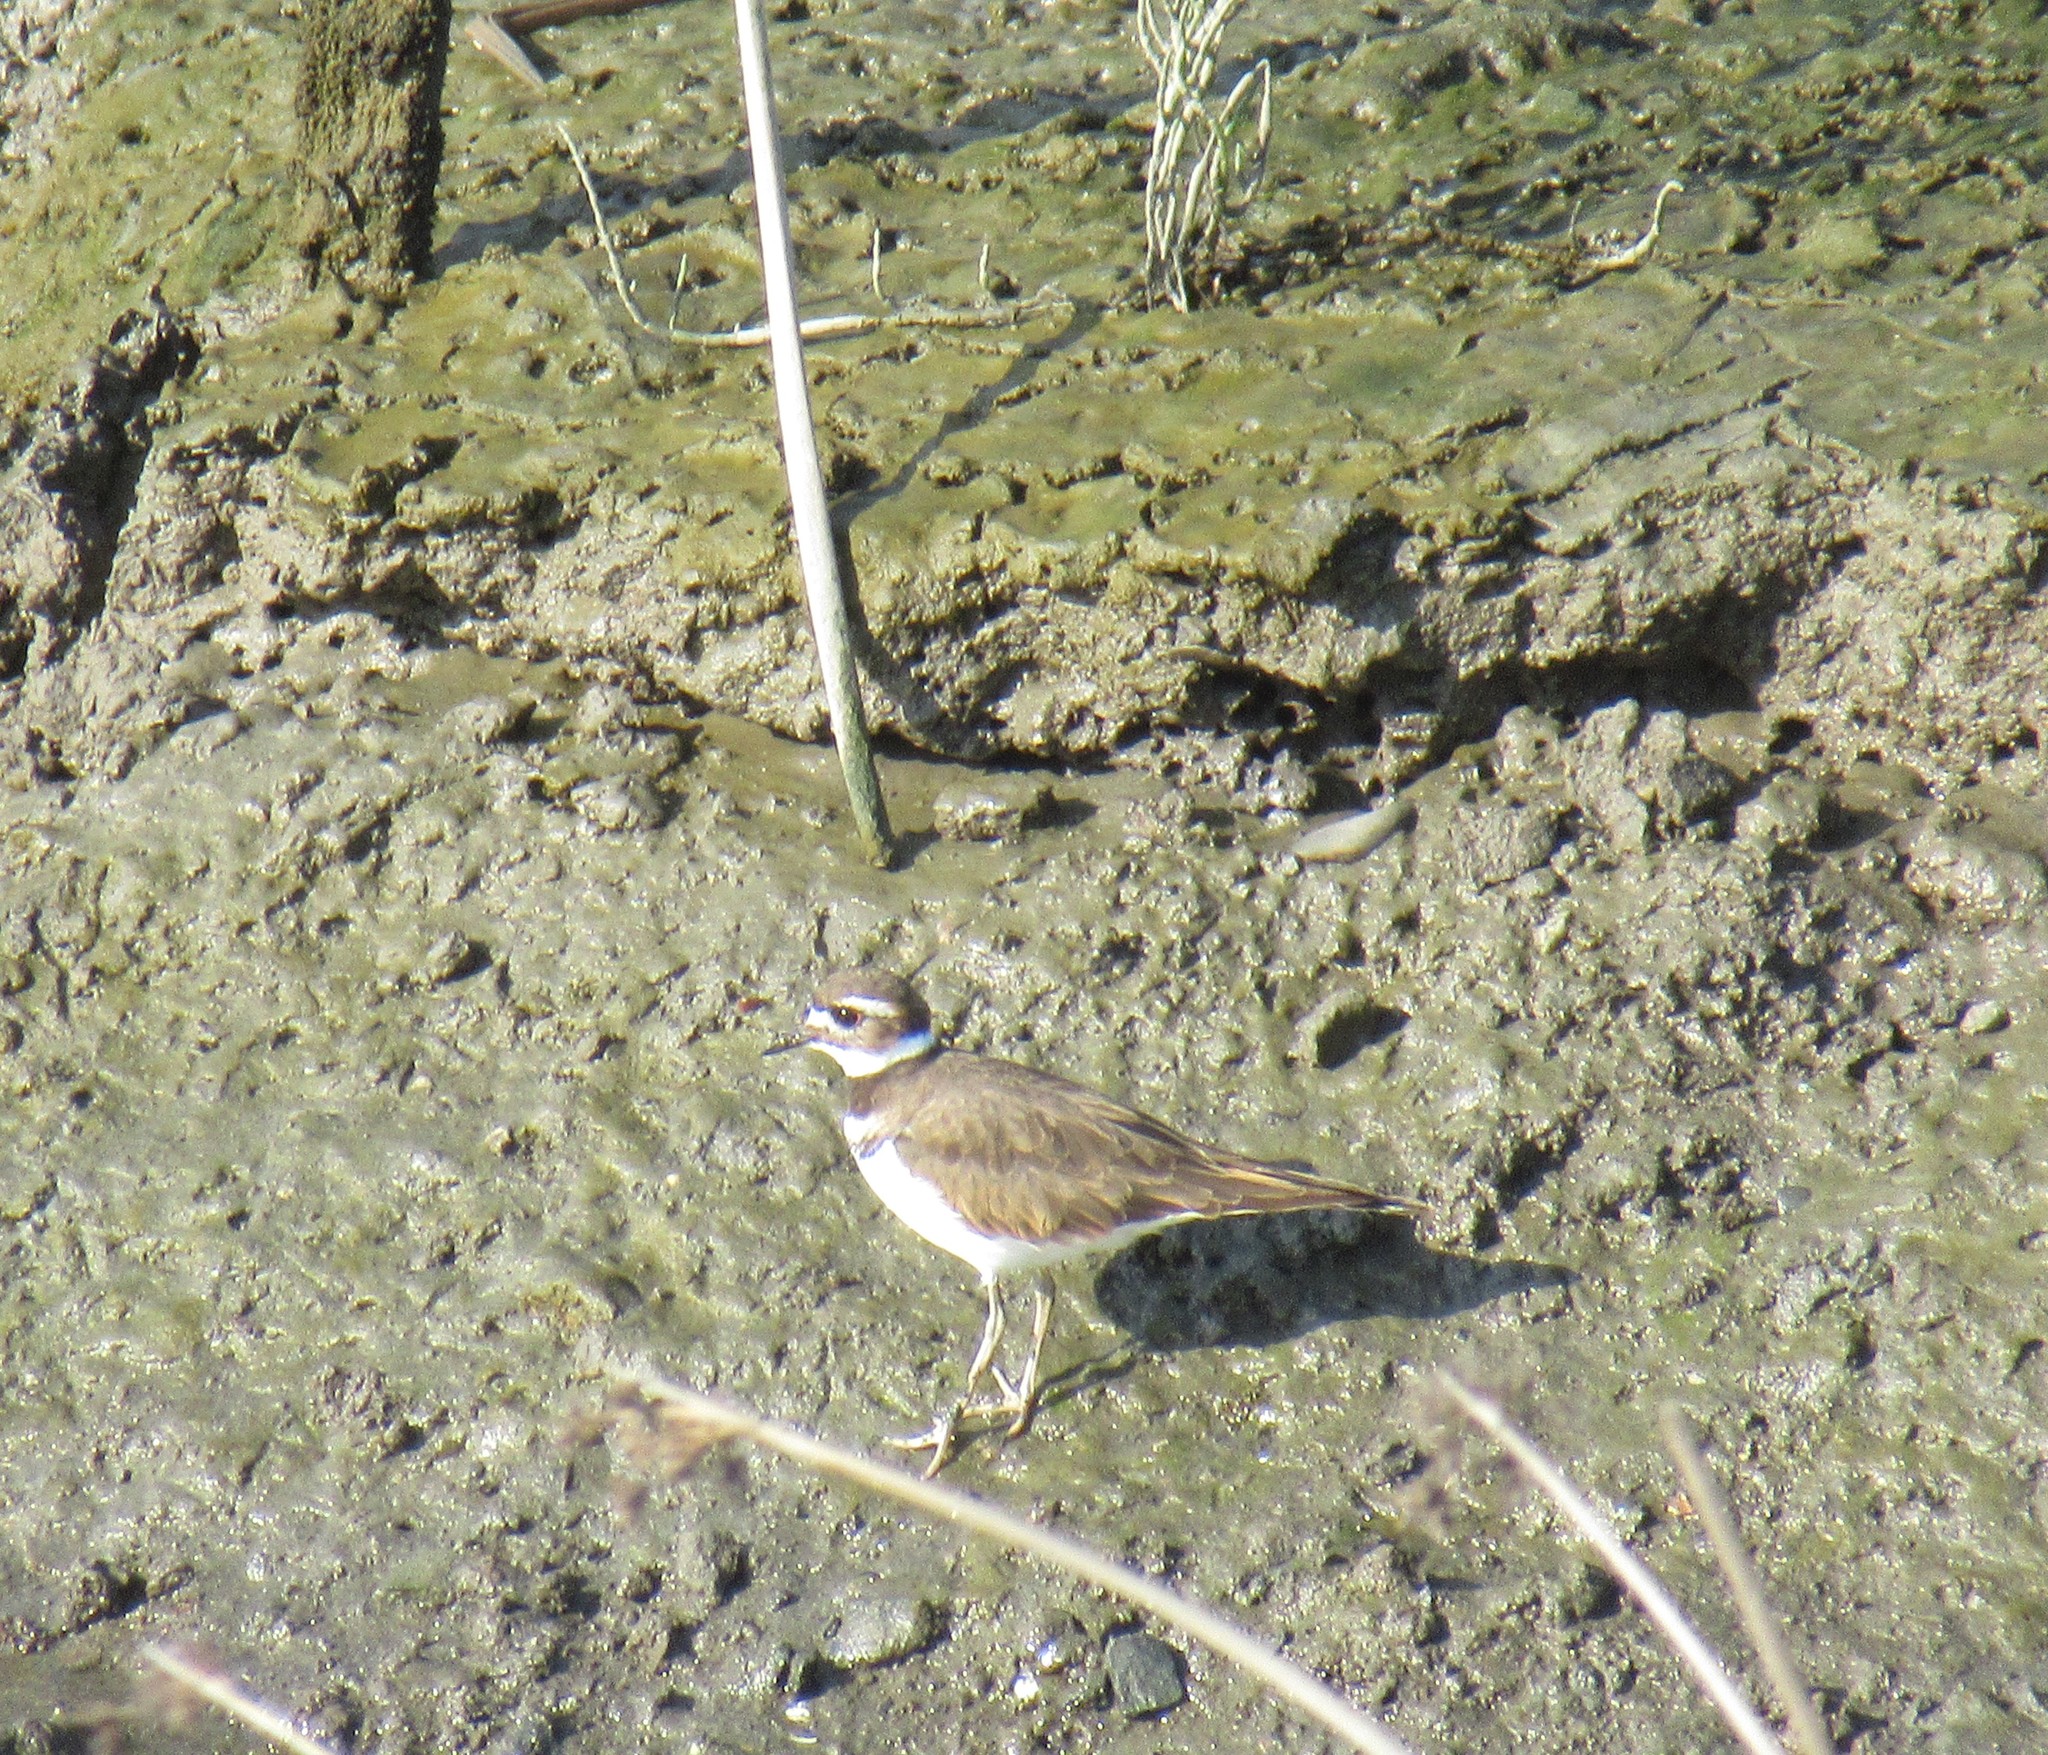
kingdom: Animalia
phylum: Chordata
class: Aves
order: Charadriiformes
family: Charadriidae
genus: Charadrius
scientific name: Charadrius vociferus
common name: Killdeer
